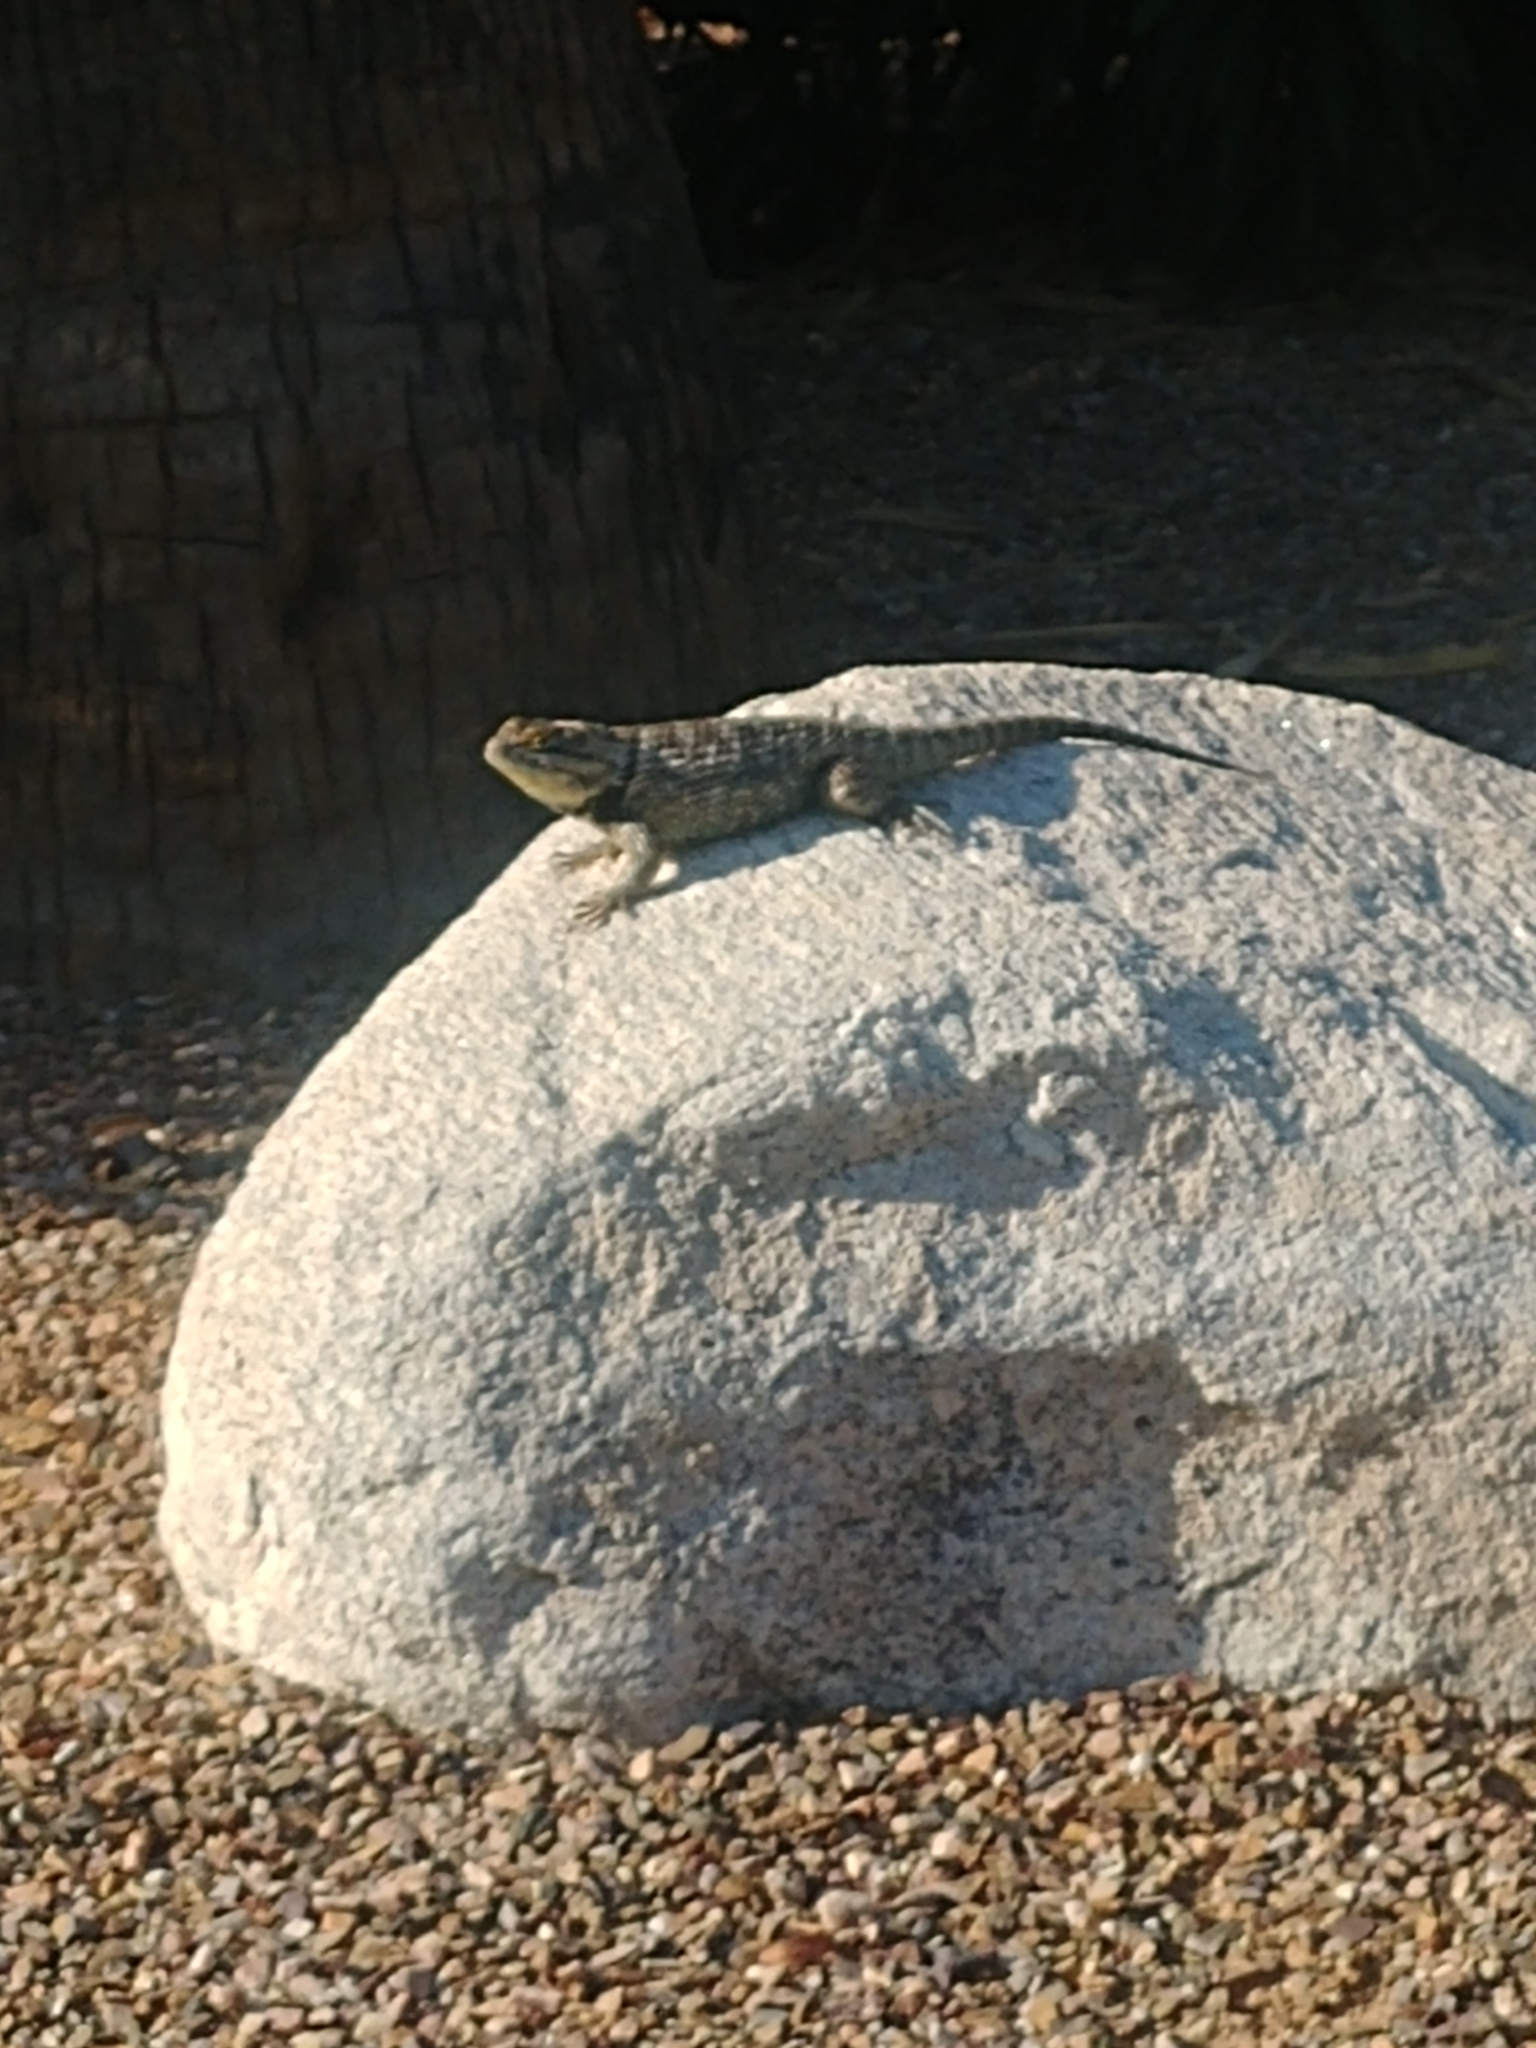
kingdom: Animalia
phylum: Chordata
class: Squamata
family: Phrynosomatidae
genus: Sceloporus
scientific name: Sceloporus magister
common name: Desert spiny lizard
